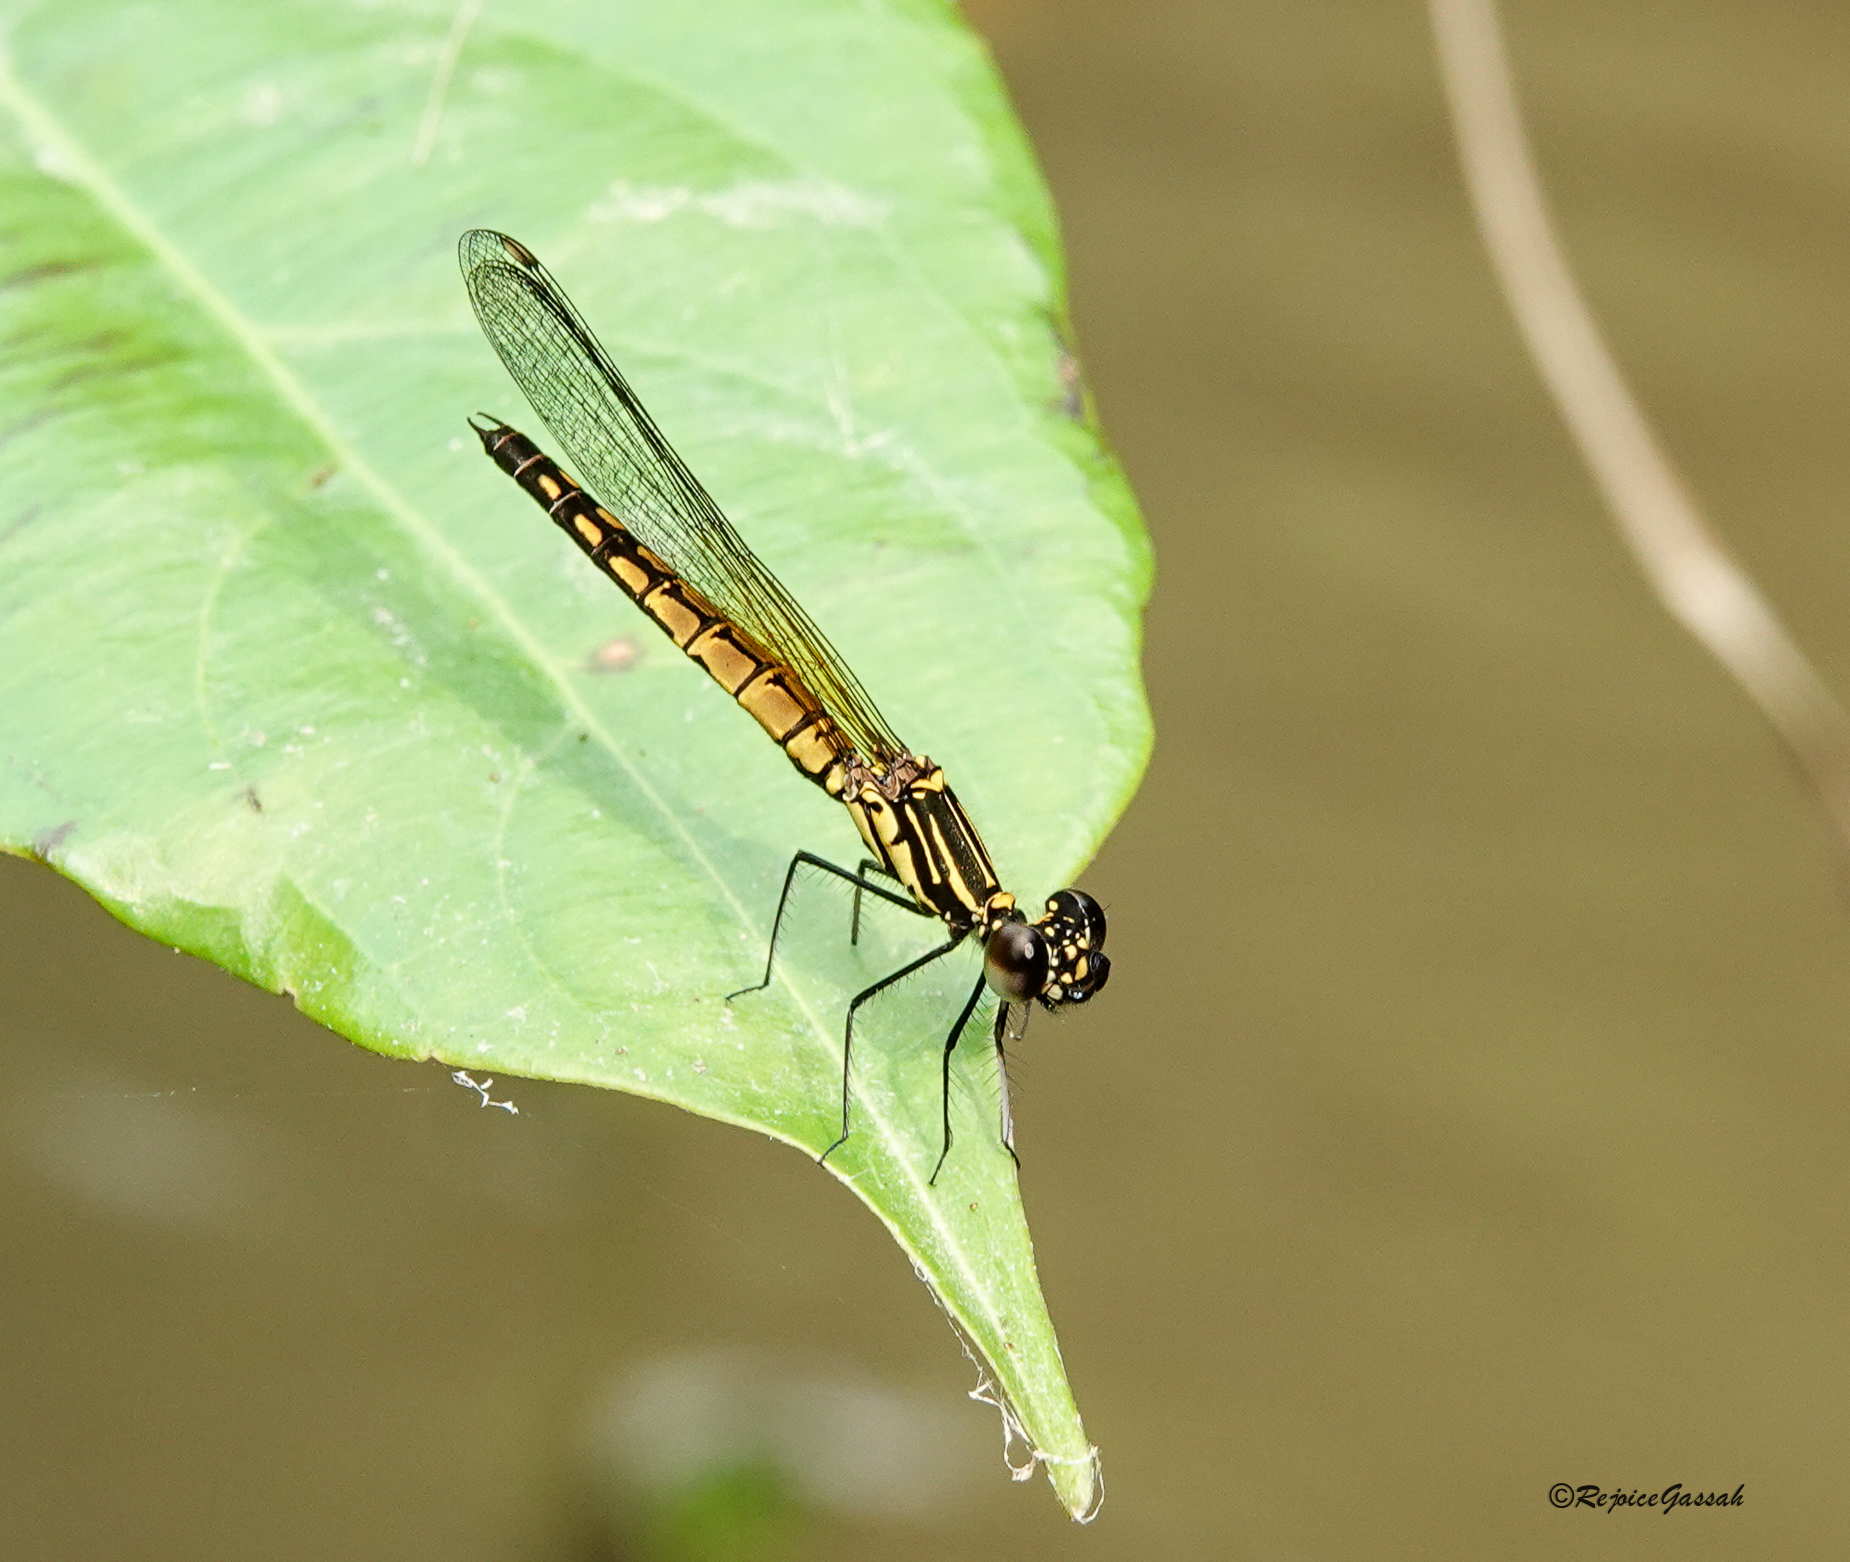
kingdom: Animalia
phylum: Arthropoda
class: Insecta
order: Odonata
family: Chlorocyphidae
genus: Libellago
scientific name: Libellago lineata
